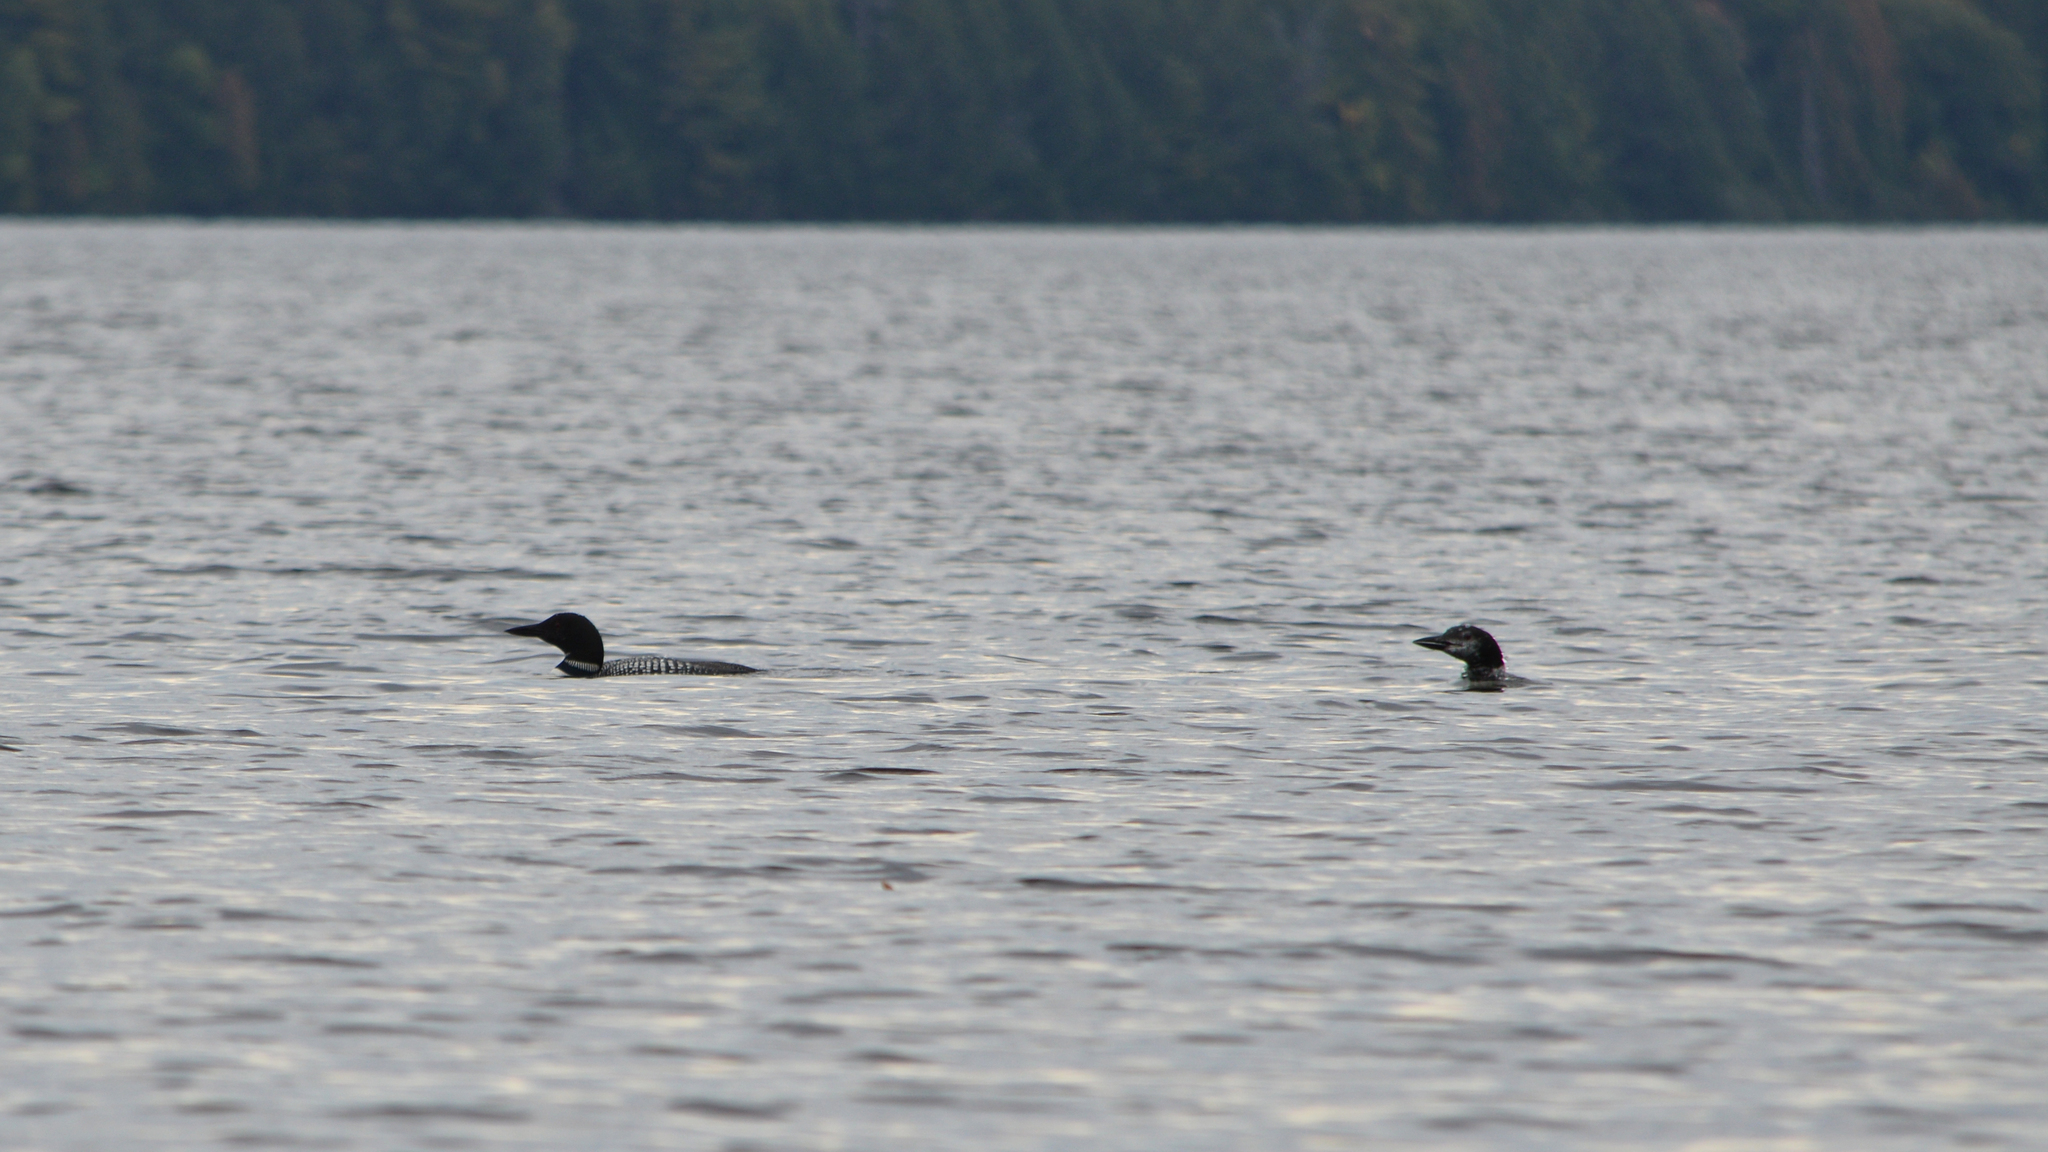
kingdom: Animalia
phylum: Chordata
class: Aves
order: Gaviiformes
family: Gaviidae
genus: Gavia
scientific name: Gavia immer
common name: Common loon
